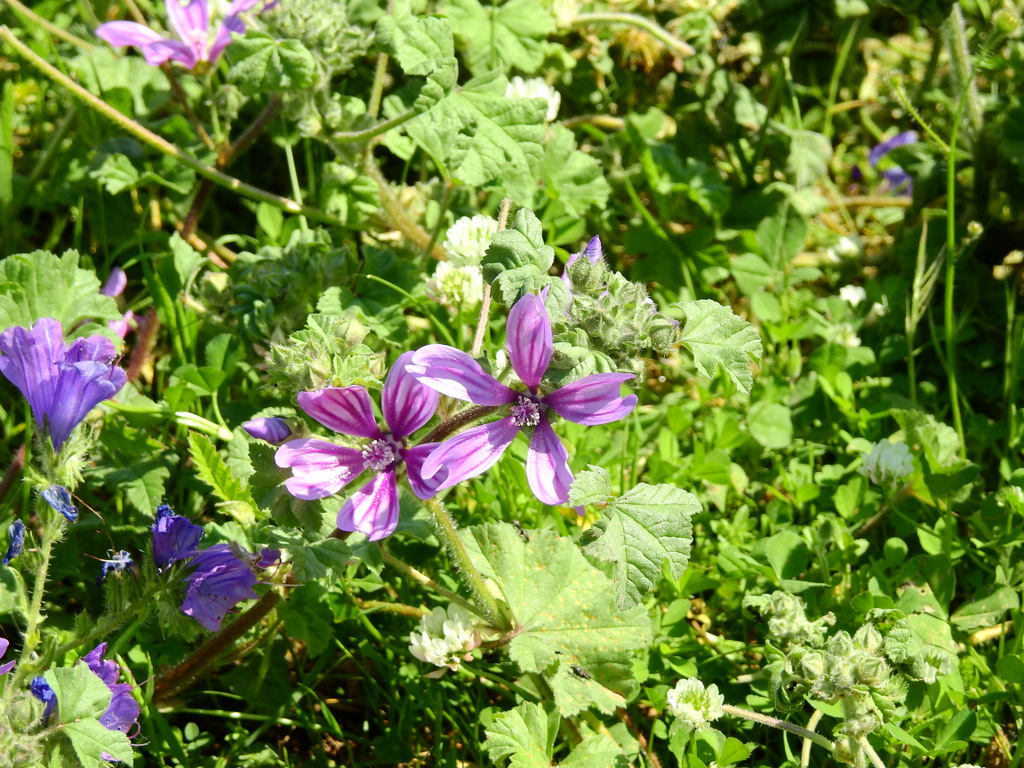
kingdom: Plantae
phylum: Tracheophyta
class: Magnoliopsida
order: Malvales
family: Malvaceae
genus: Malva
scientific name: Malva sylvestris
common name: Common mallow
